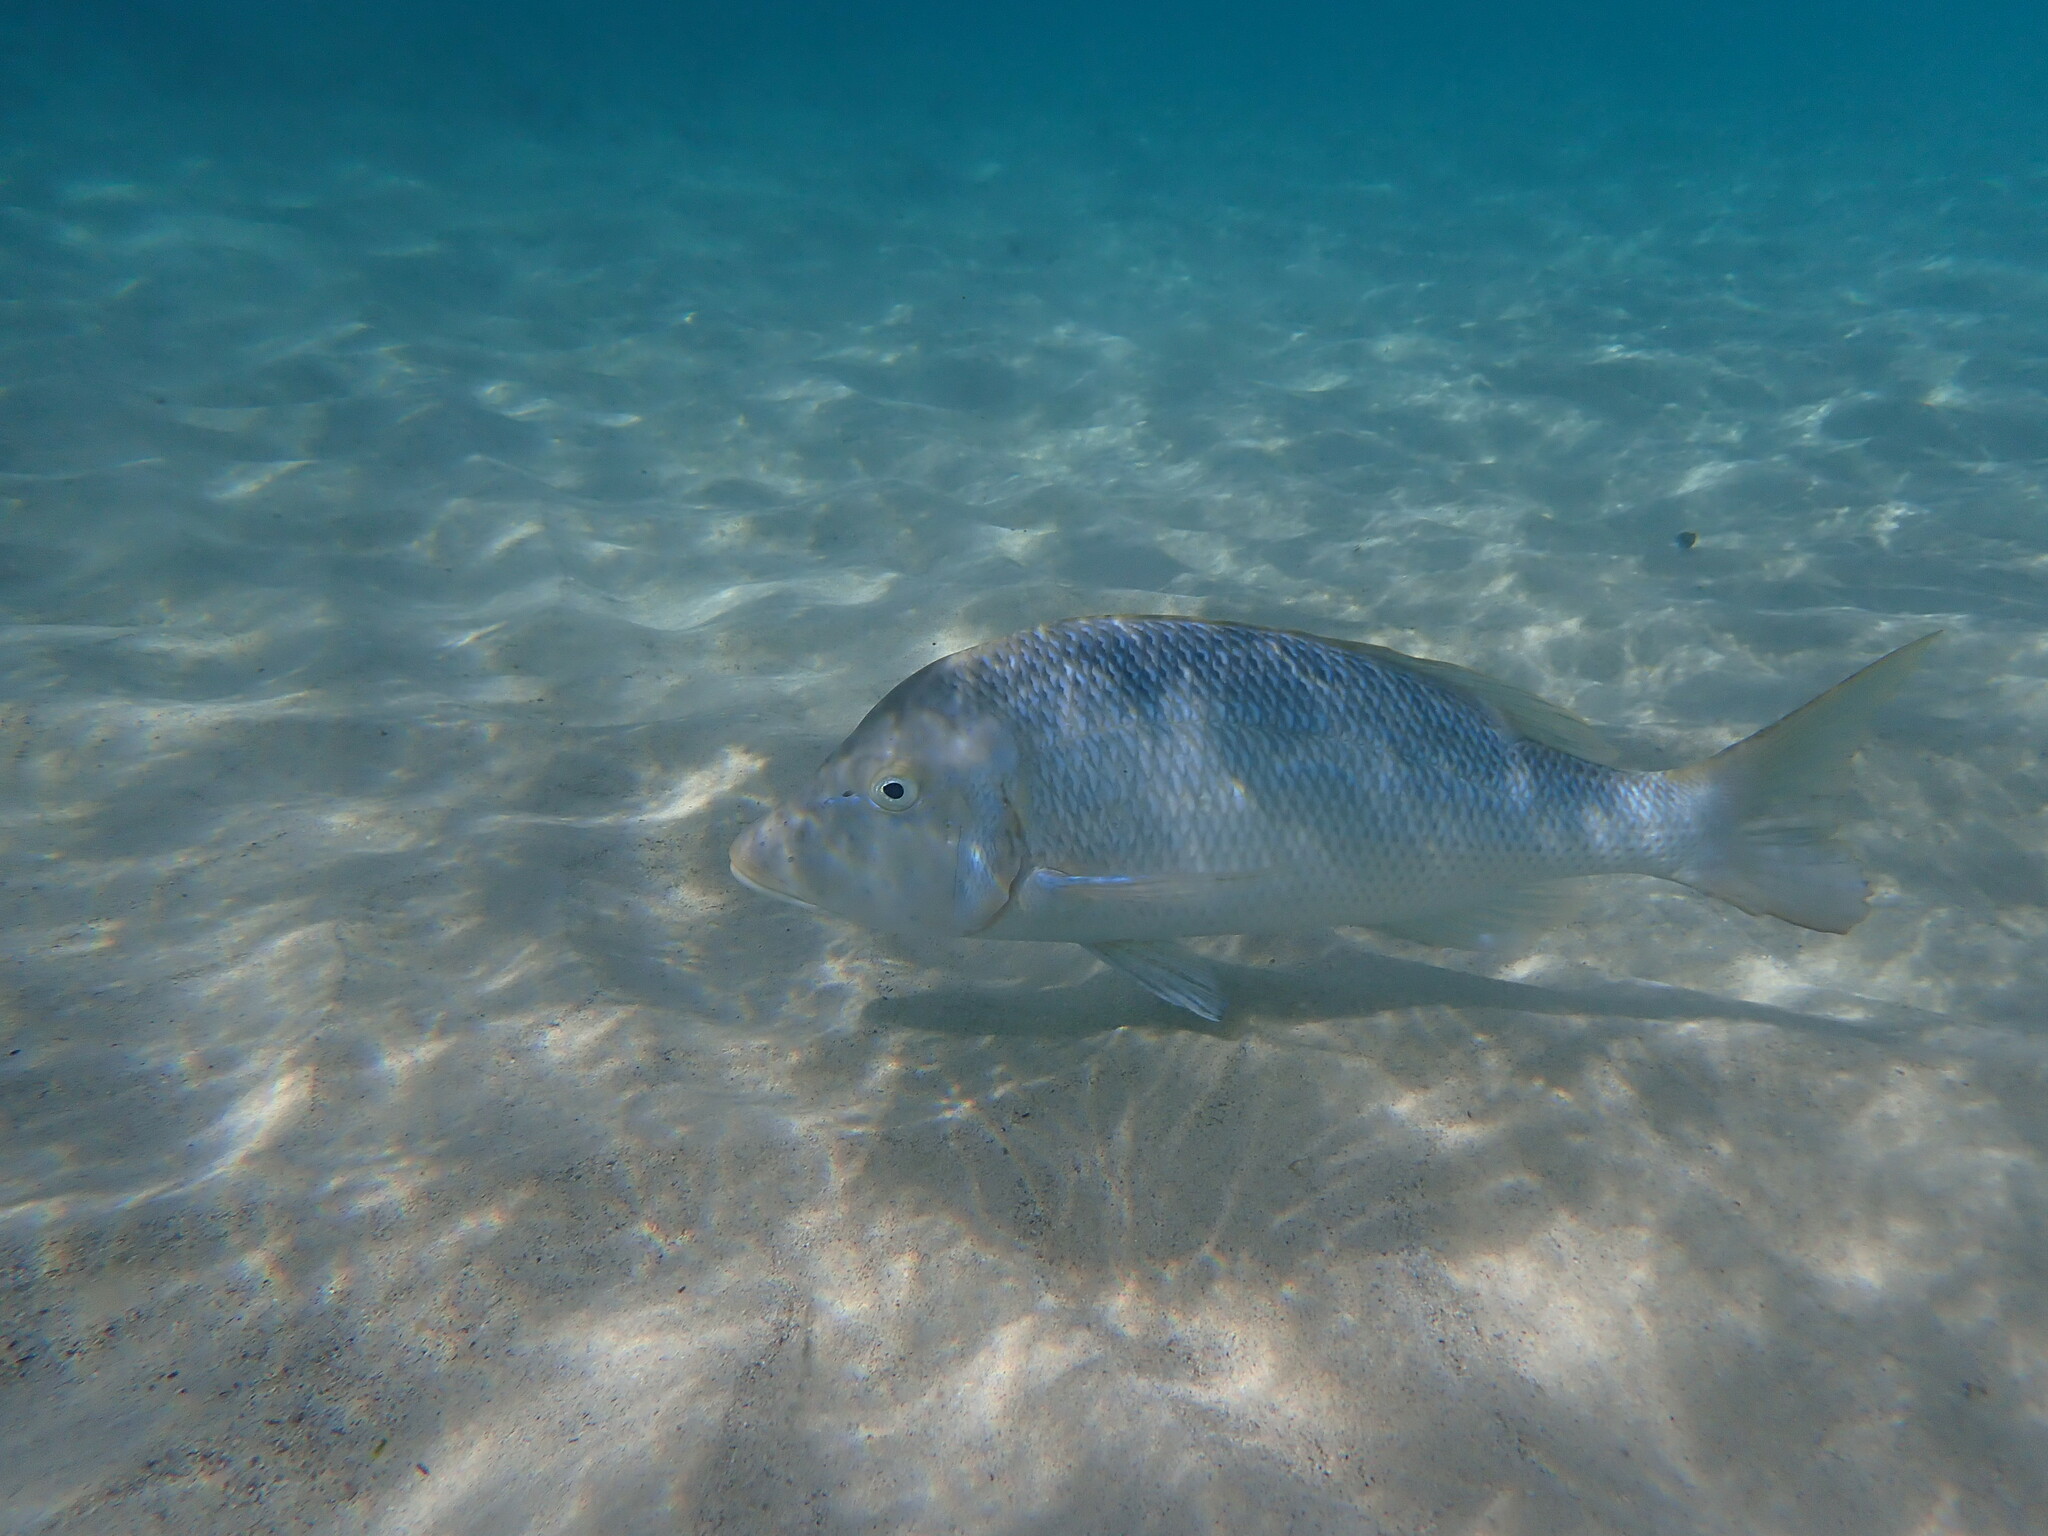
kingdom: Animalia
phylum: Chordata
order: Perciformes
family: Lethrinidae
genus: Lethrinus
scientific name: Lethrinus nebulosus
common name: Spangled emperor
